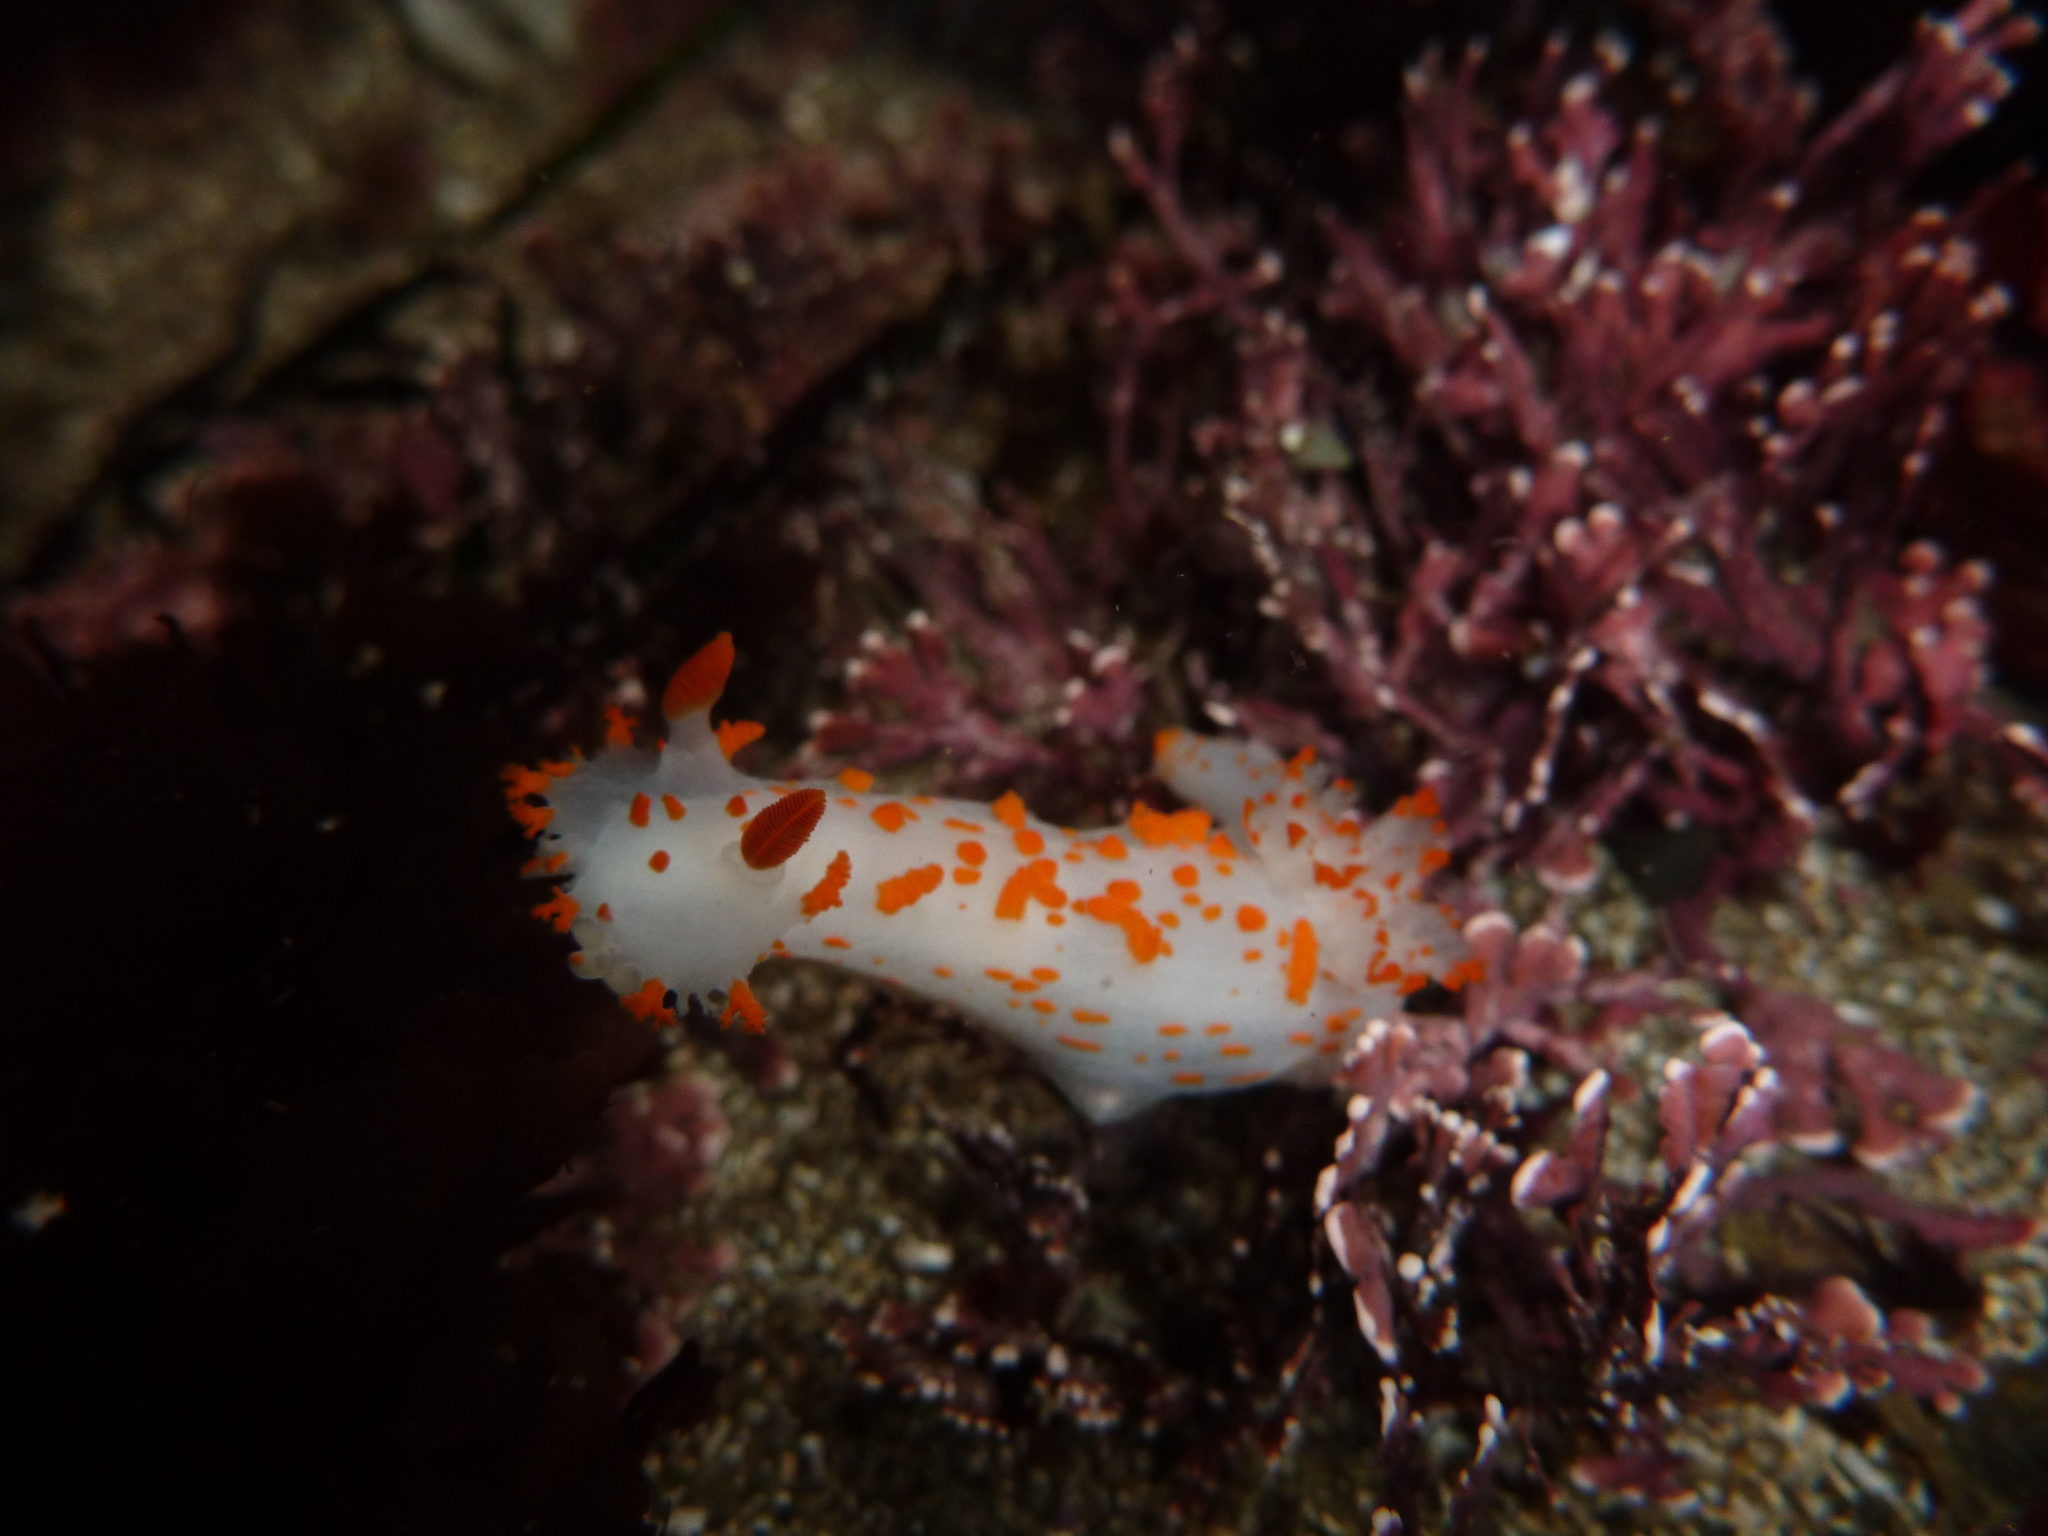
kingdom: Animalia
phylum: Mollusca
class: Gastropoda
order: Nudibranchia
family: Polyceridae
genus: Triopha
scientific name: Triopha catalinae
